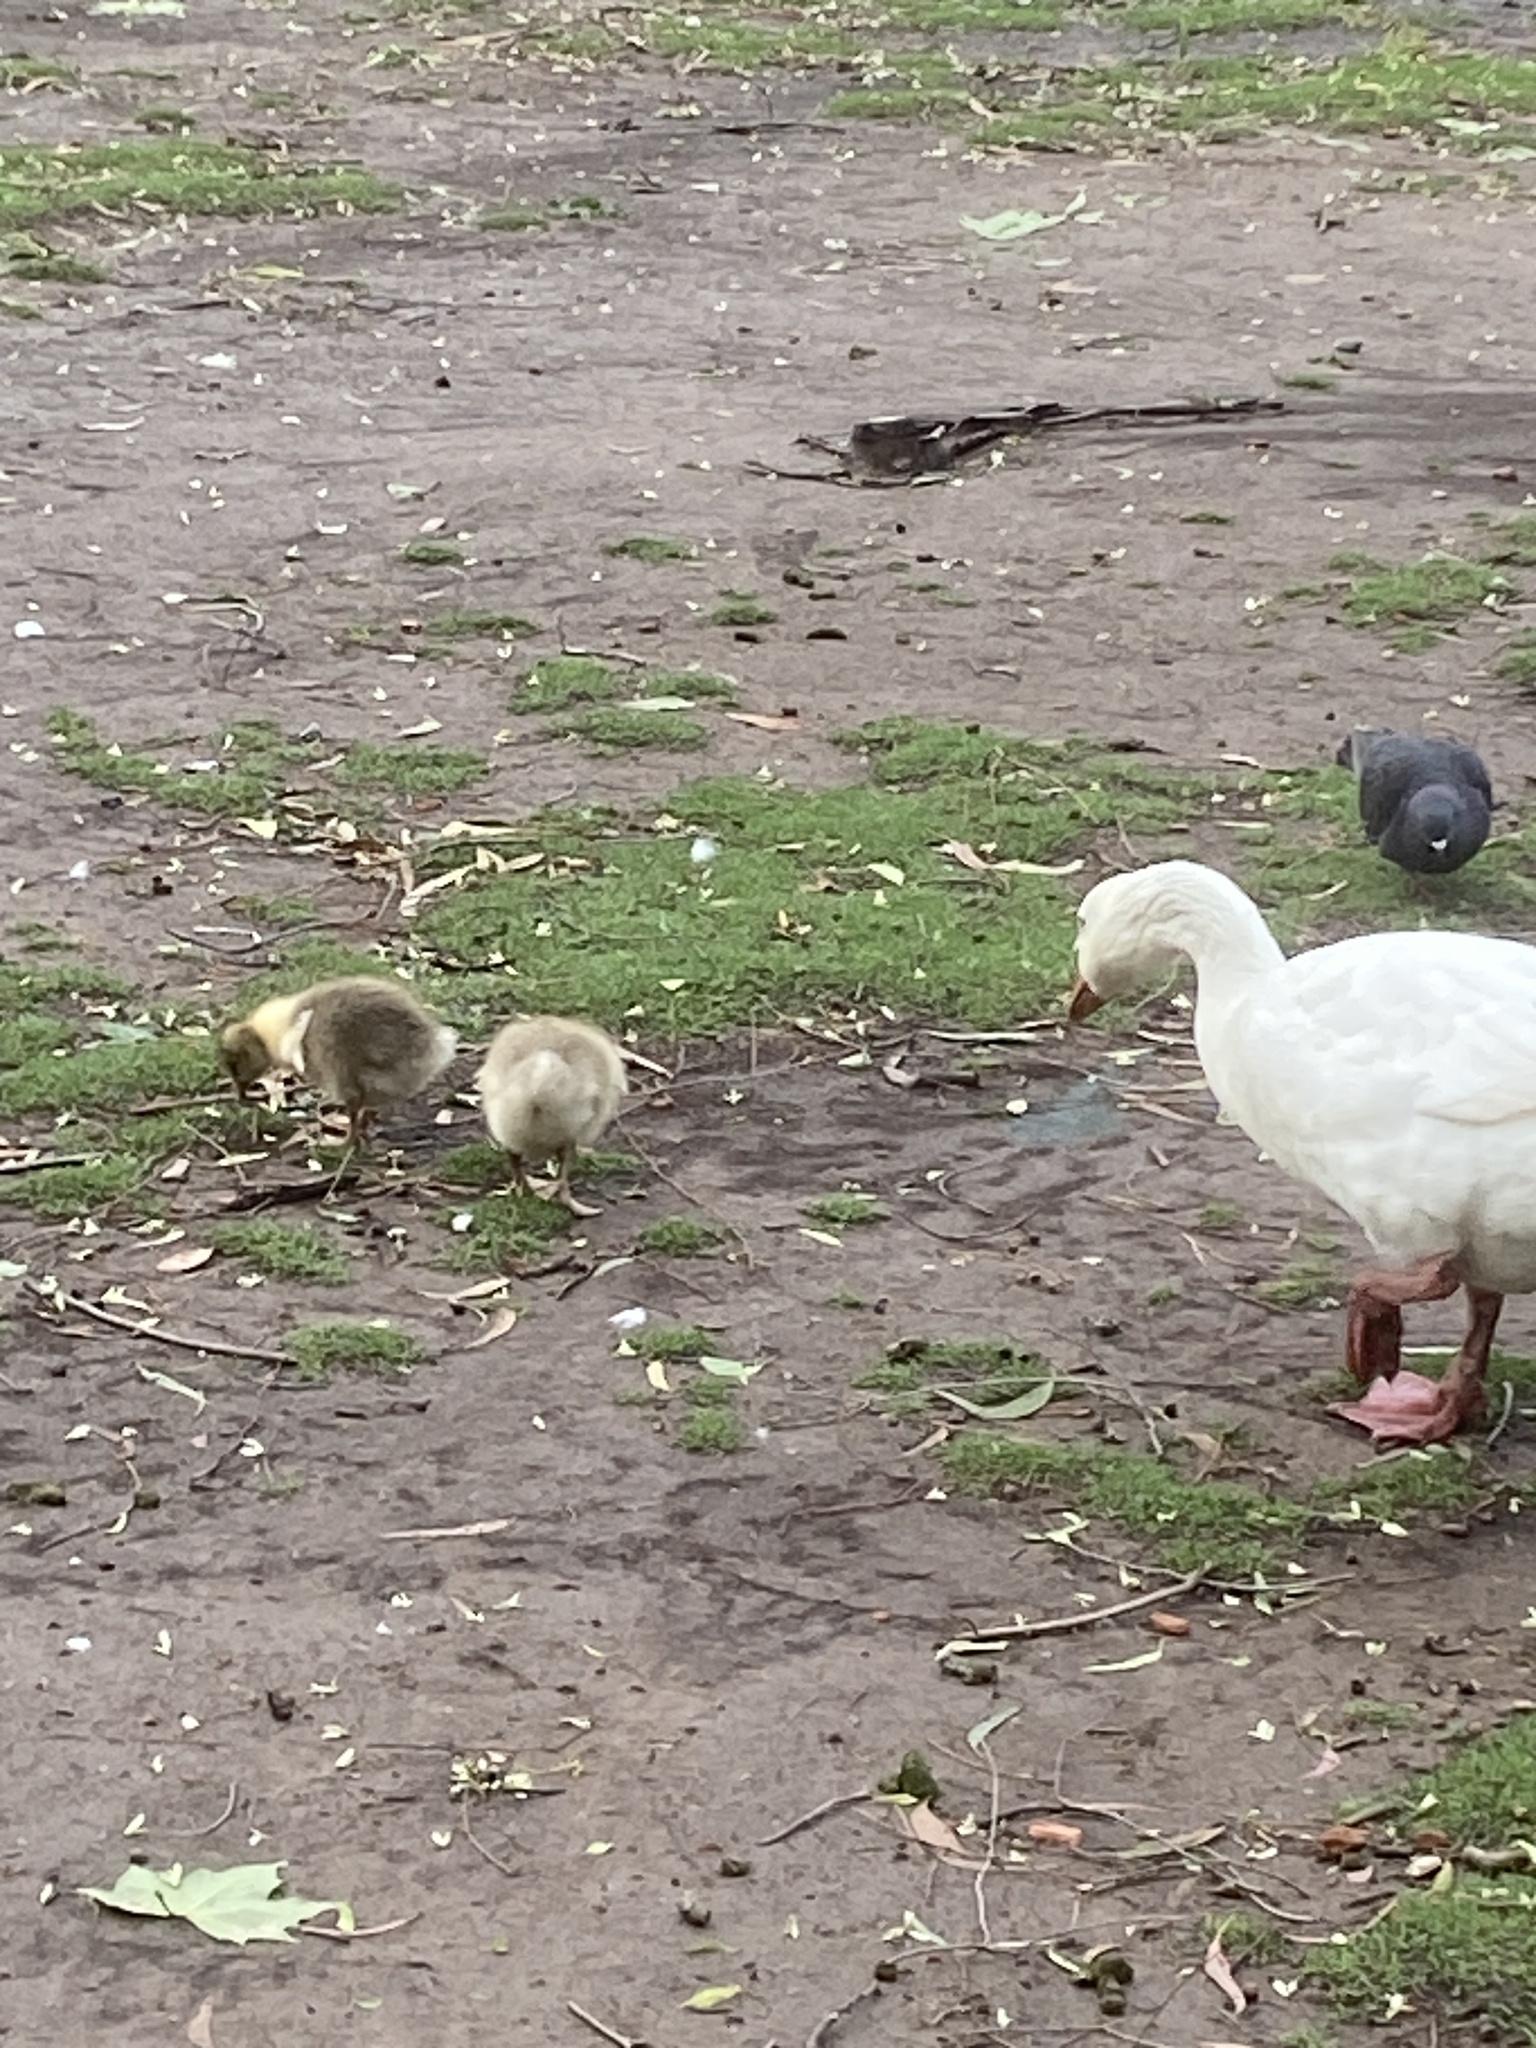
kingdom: Animalia
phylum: Chordata
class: Aves
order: Anseriformes
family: Anatidae
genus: Anser
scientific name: Anser anser
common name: Greylag goose
